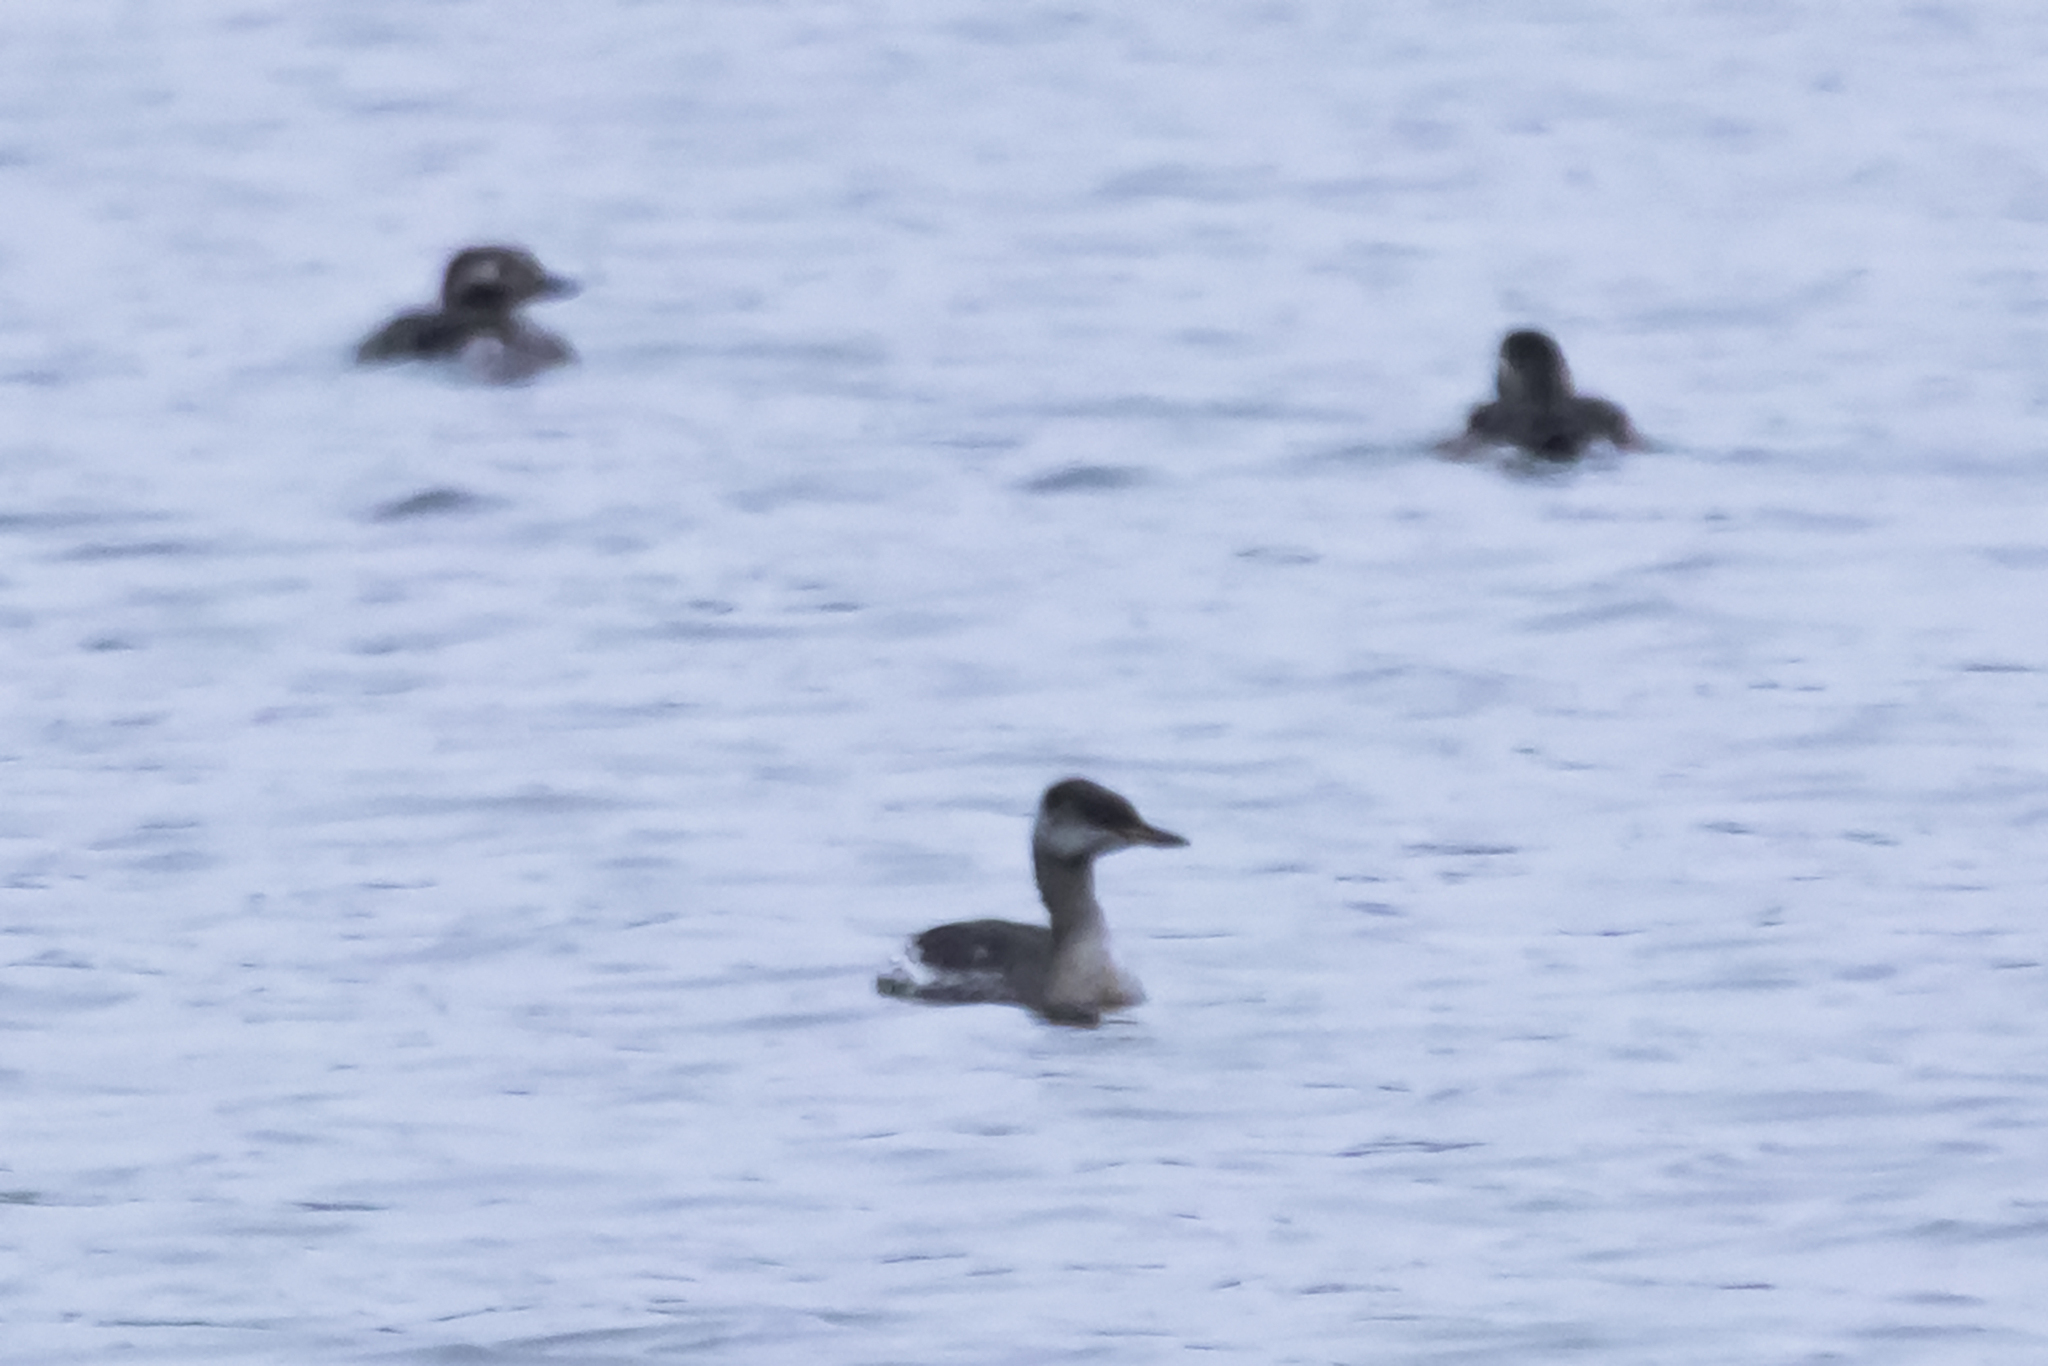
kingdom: Animalia
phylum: Chordata
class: Aves
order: Podicipediformes
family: Podicipedidae
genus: Podiceps
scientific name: Podiceps grisegena
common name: Red-necked grebe
